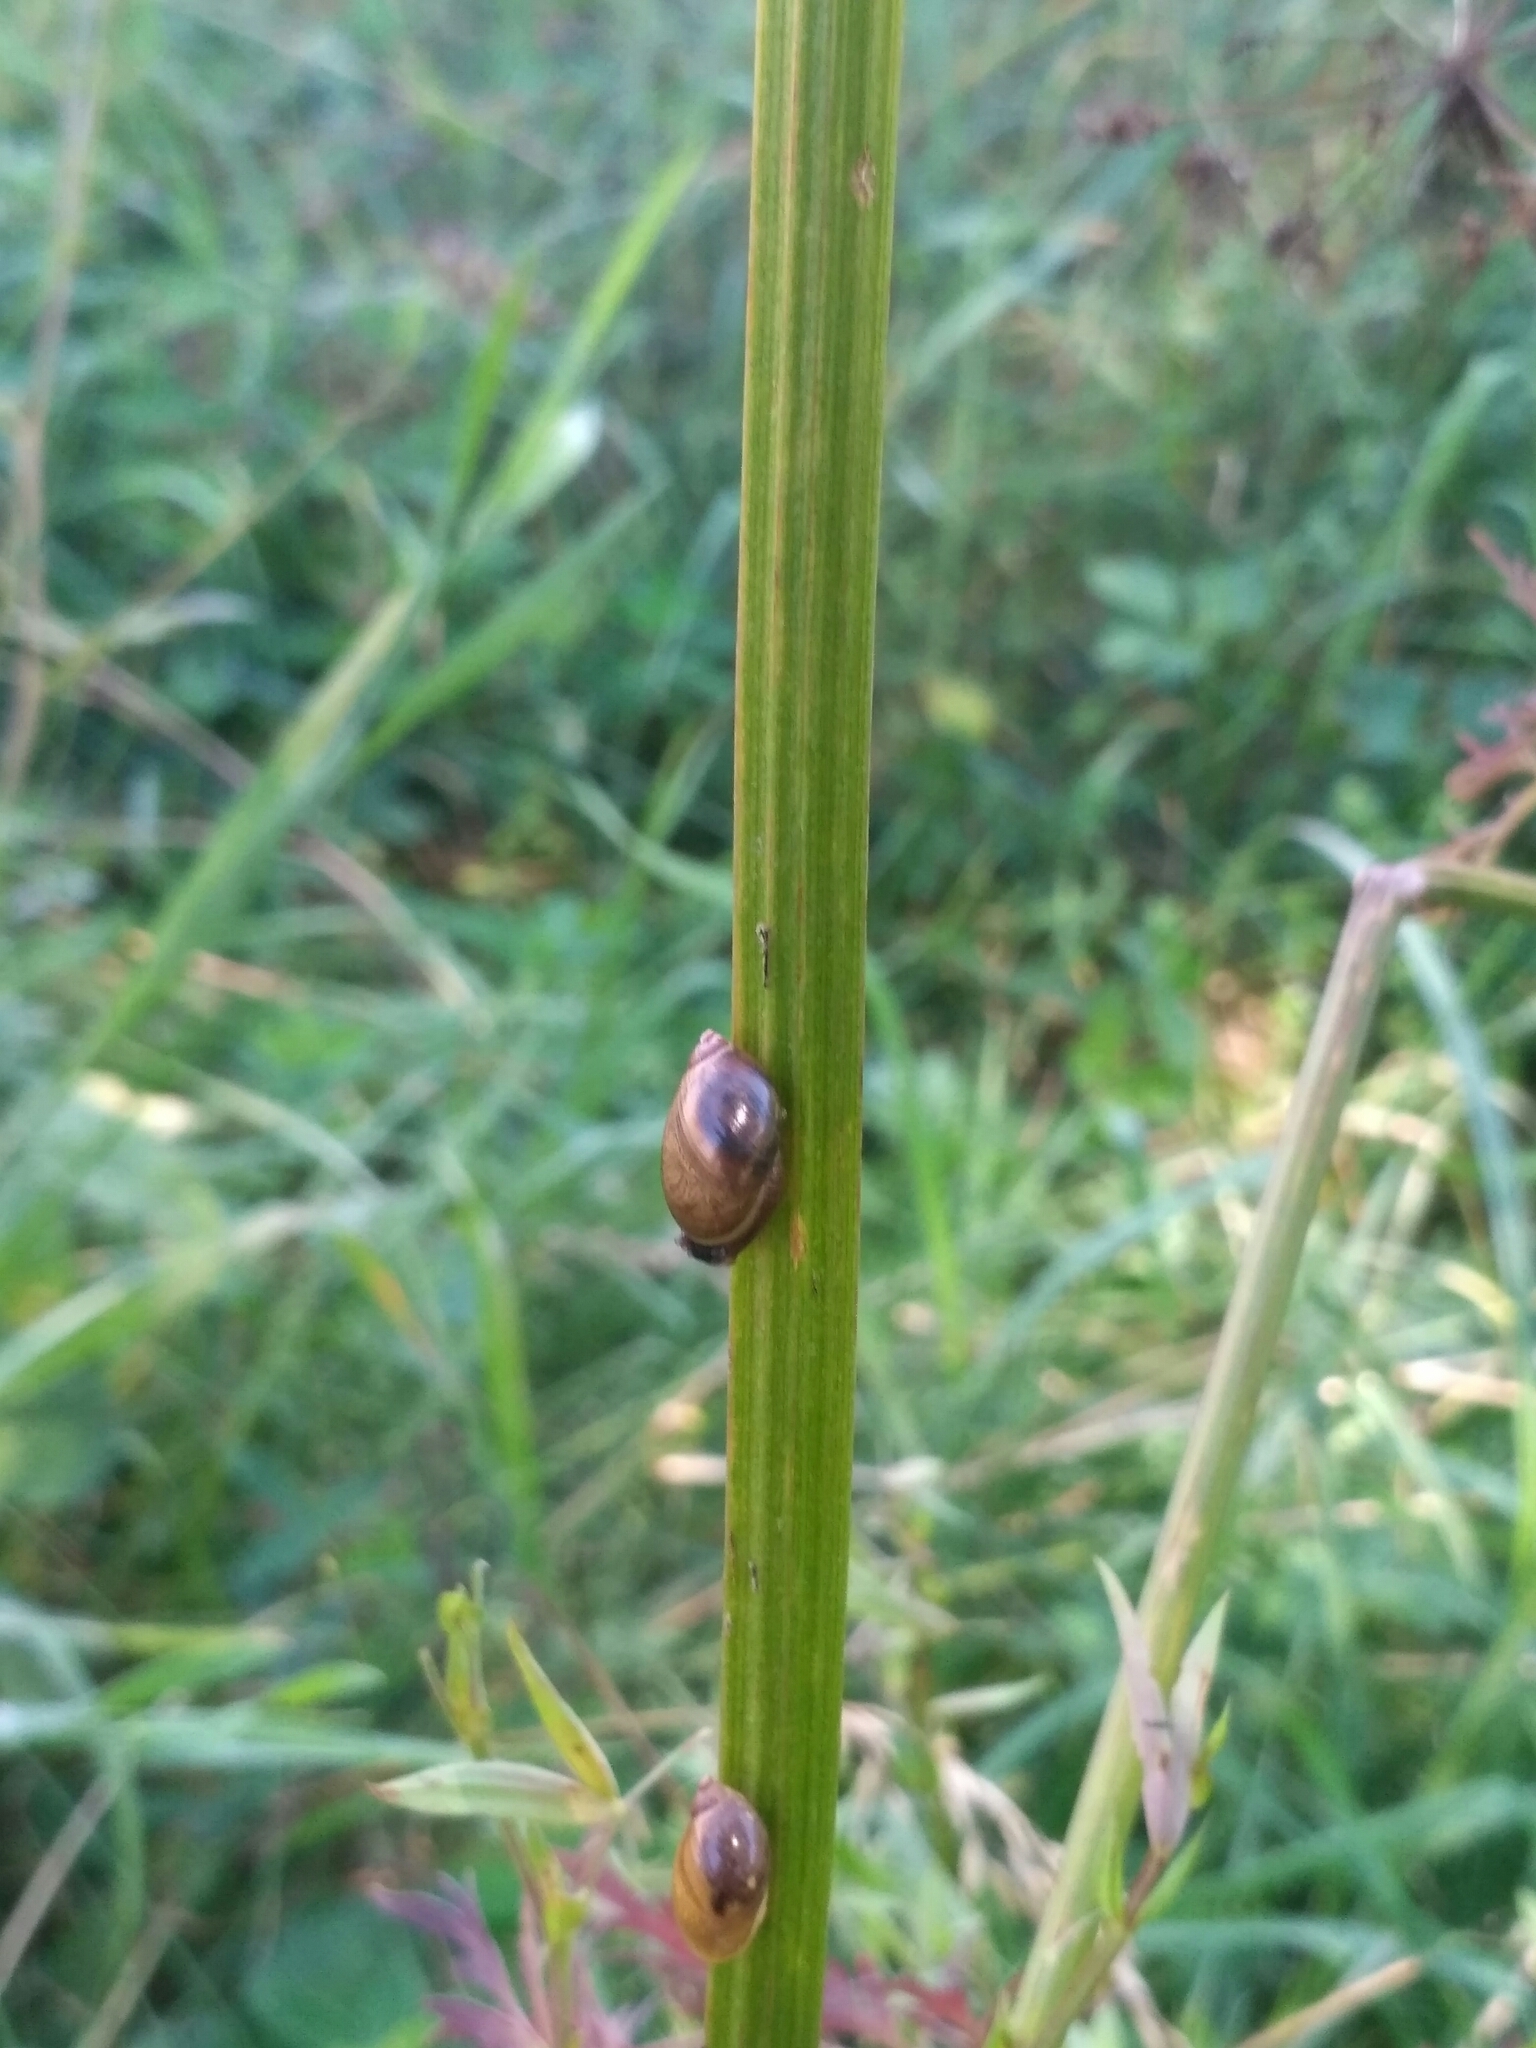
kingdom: Animalia
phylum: Mollusca
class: Gastropoda
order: Stylommatophora
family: Succineidae
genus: Succinea
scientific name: Succinea putris
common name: European ambersnail
